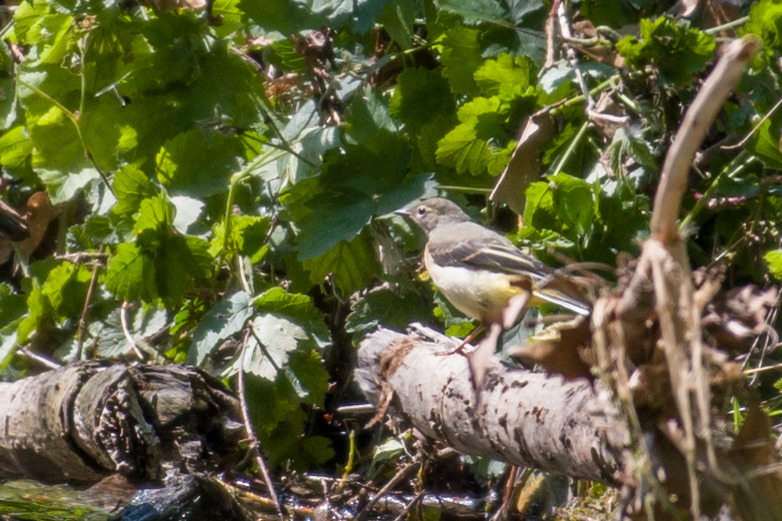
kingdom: Animalia
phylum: Chordata
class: Aves
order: Passeriformes
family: Motacillidae
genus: Motacilla
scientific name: Motacilla cinerea
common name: Grey wagtail
